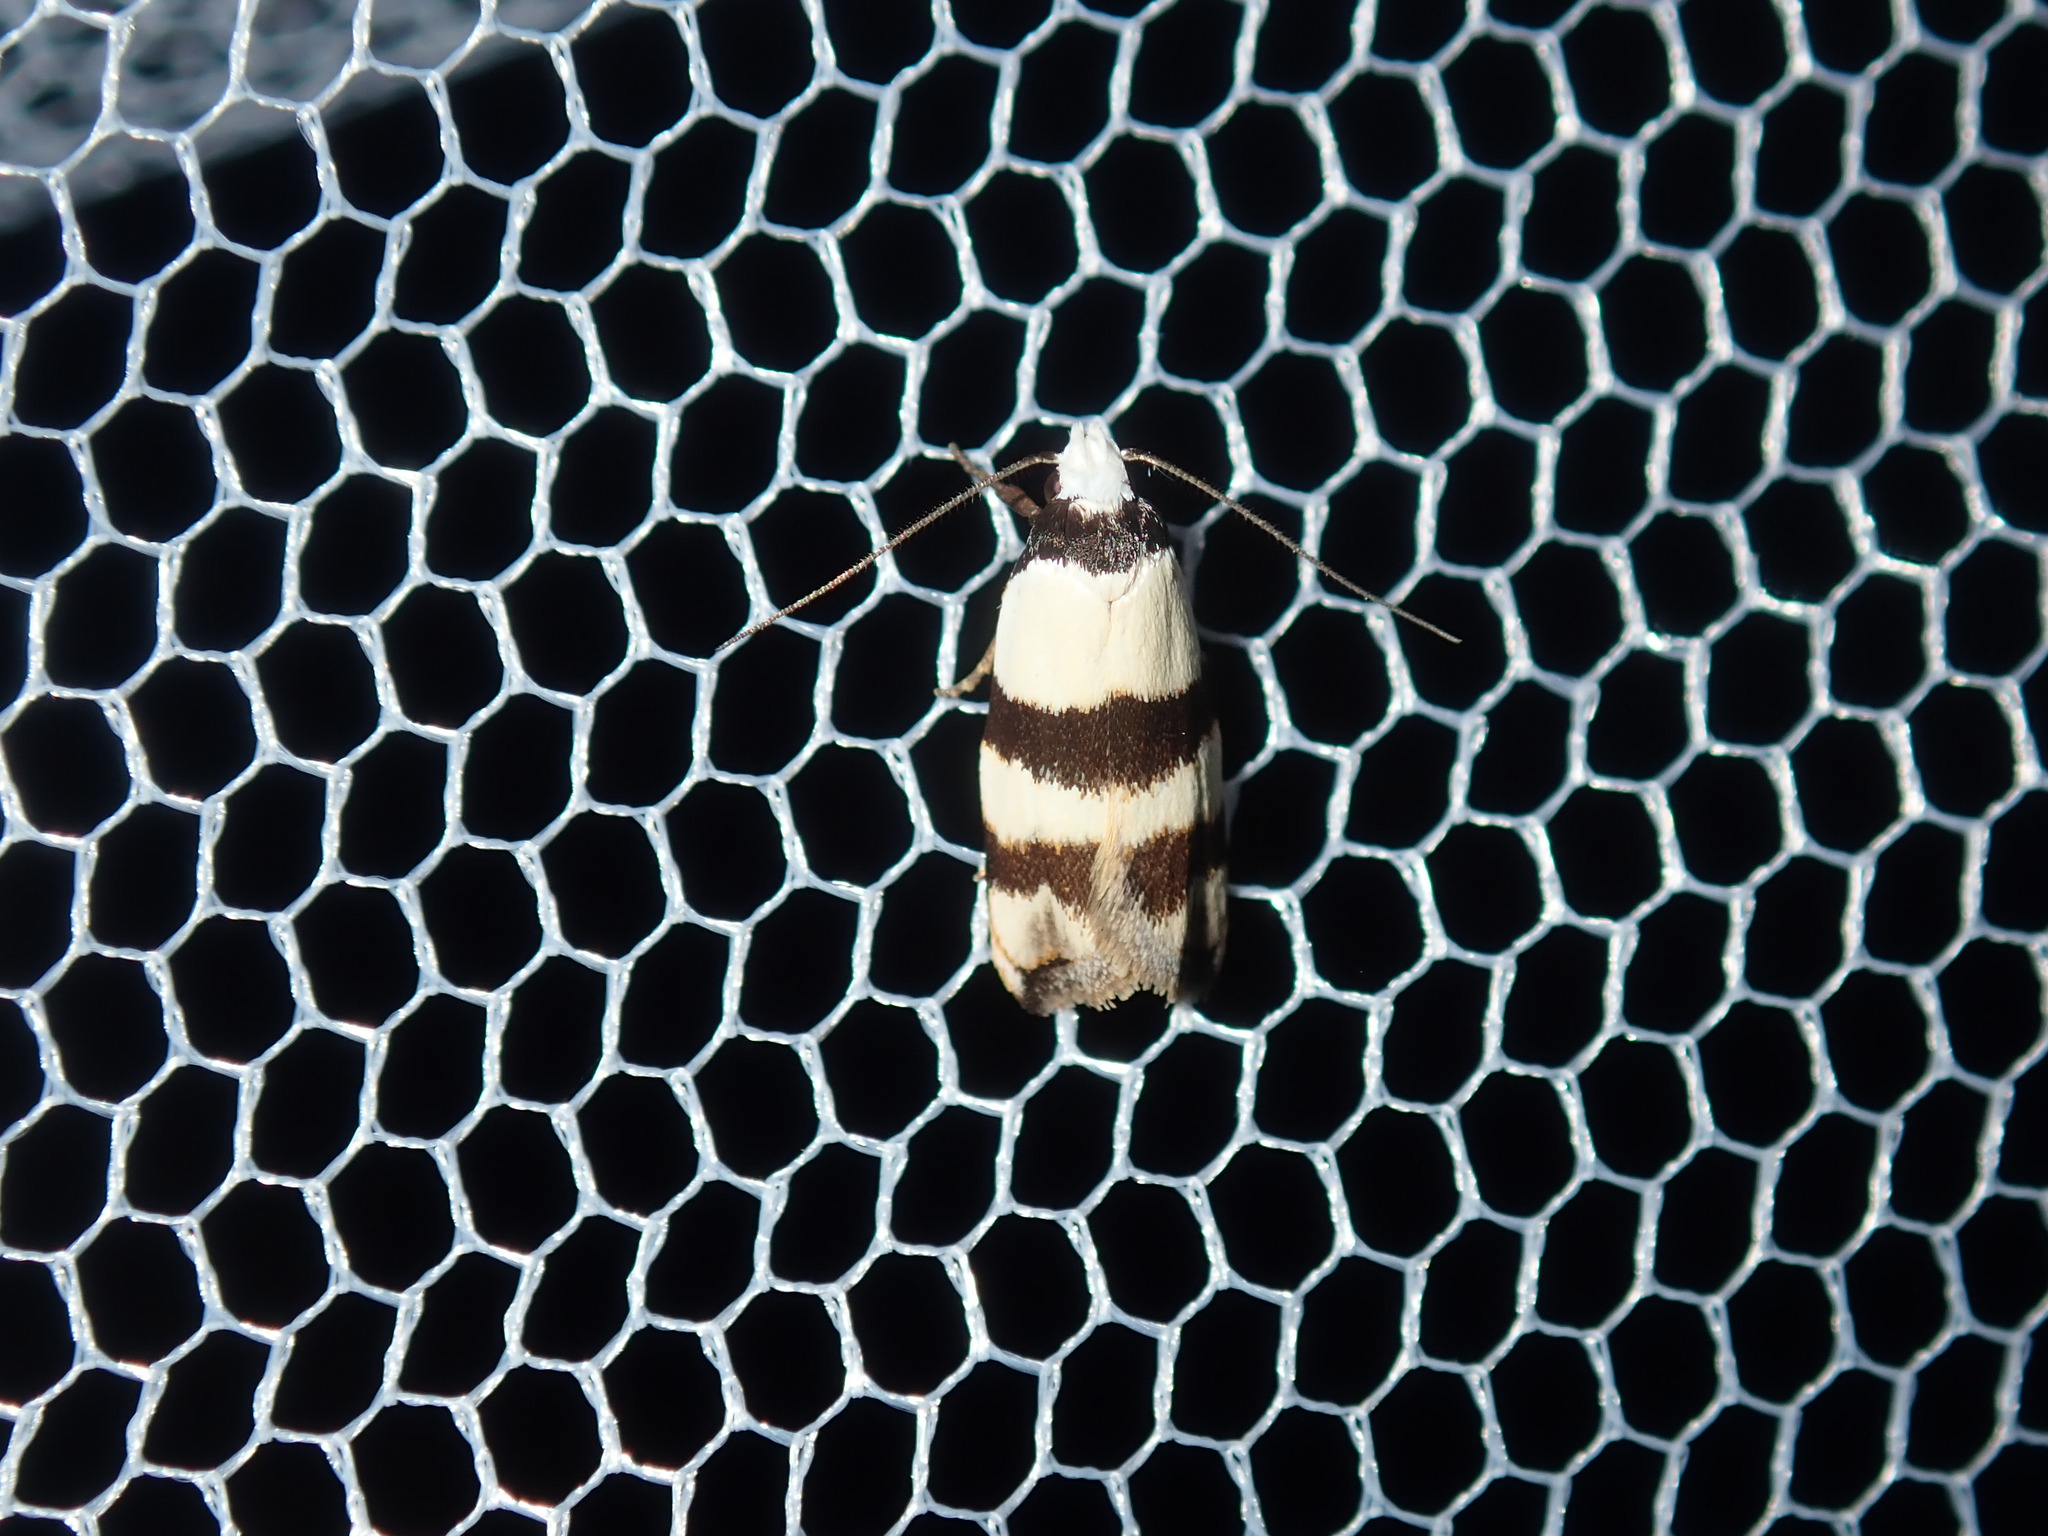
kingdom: Animalia
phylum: Arthropoda
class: Insecta
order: Lepidoptera
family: Oecophoridae
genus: Zonopetala
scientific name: Zonopetala clerota
